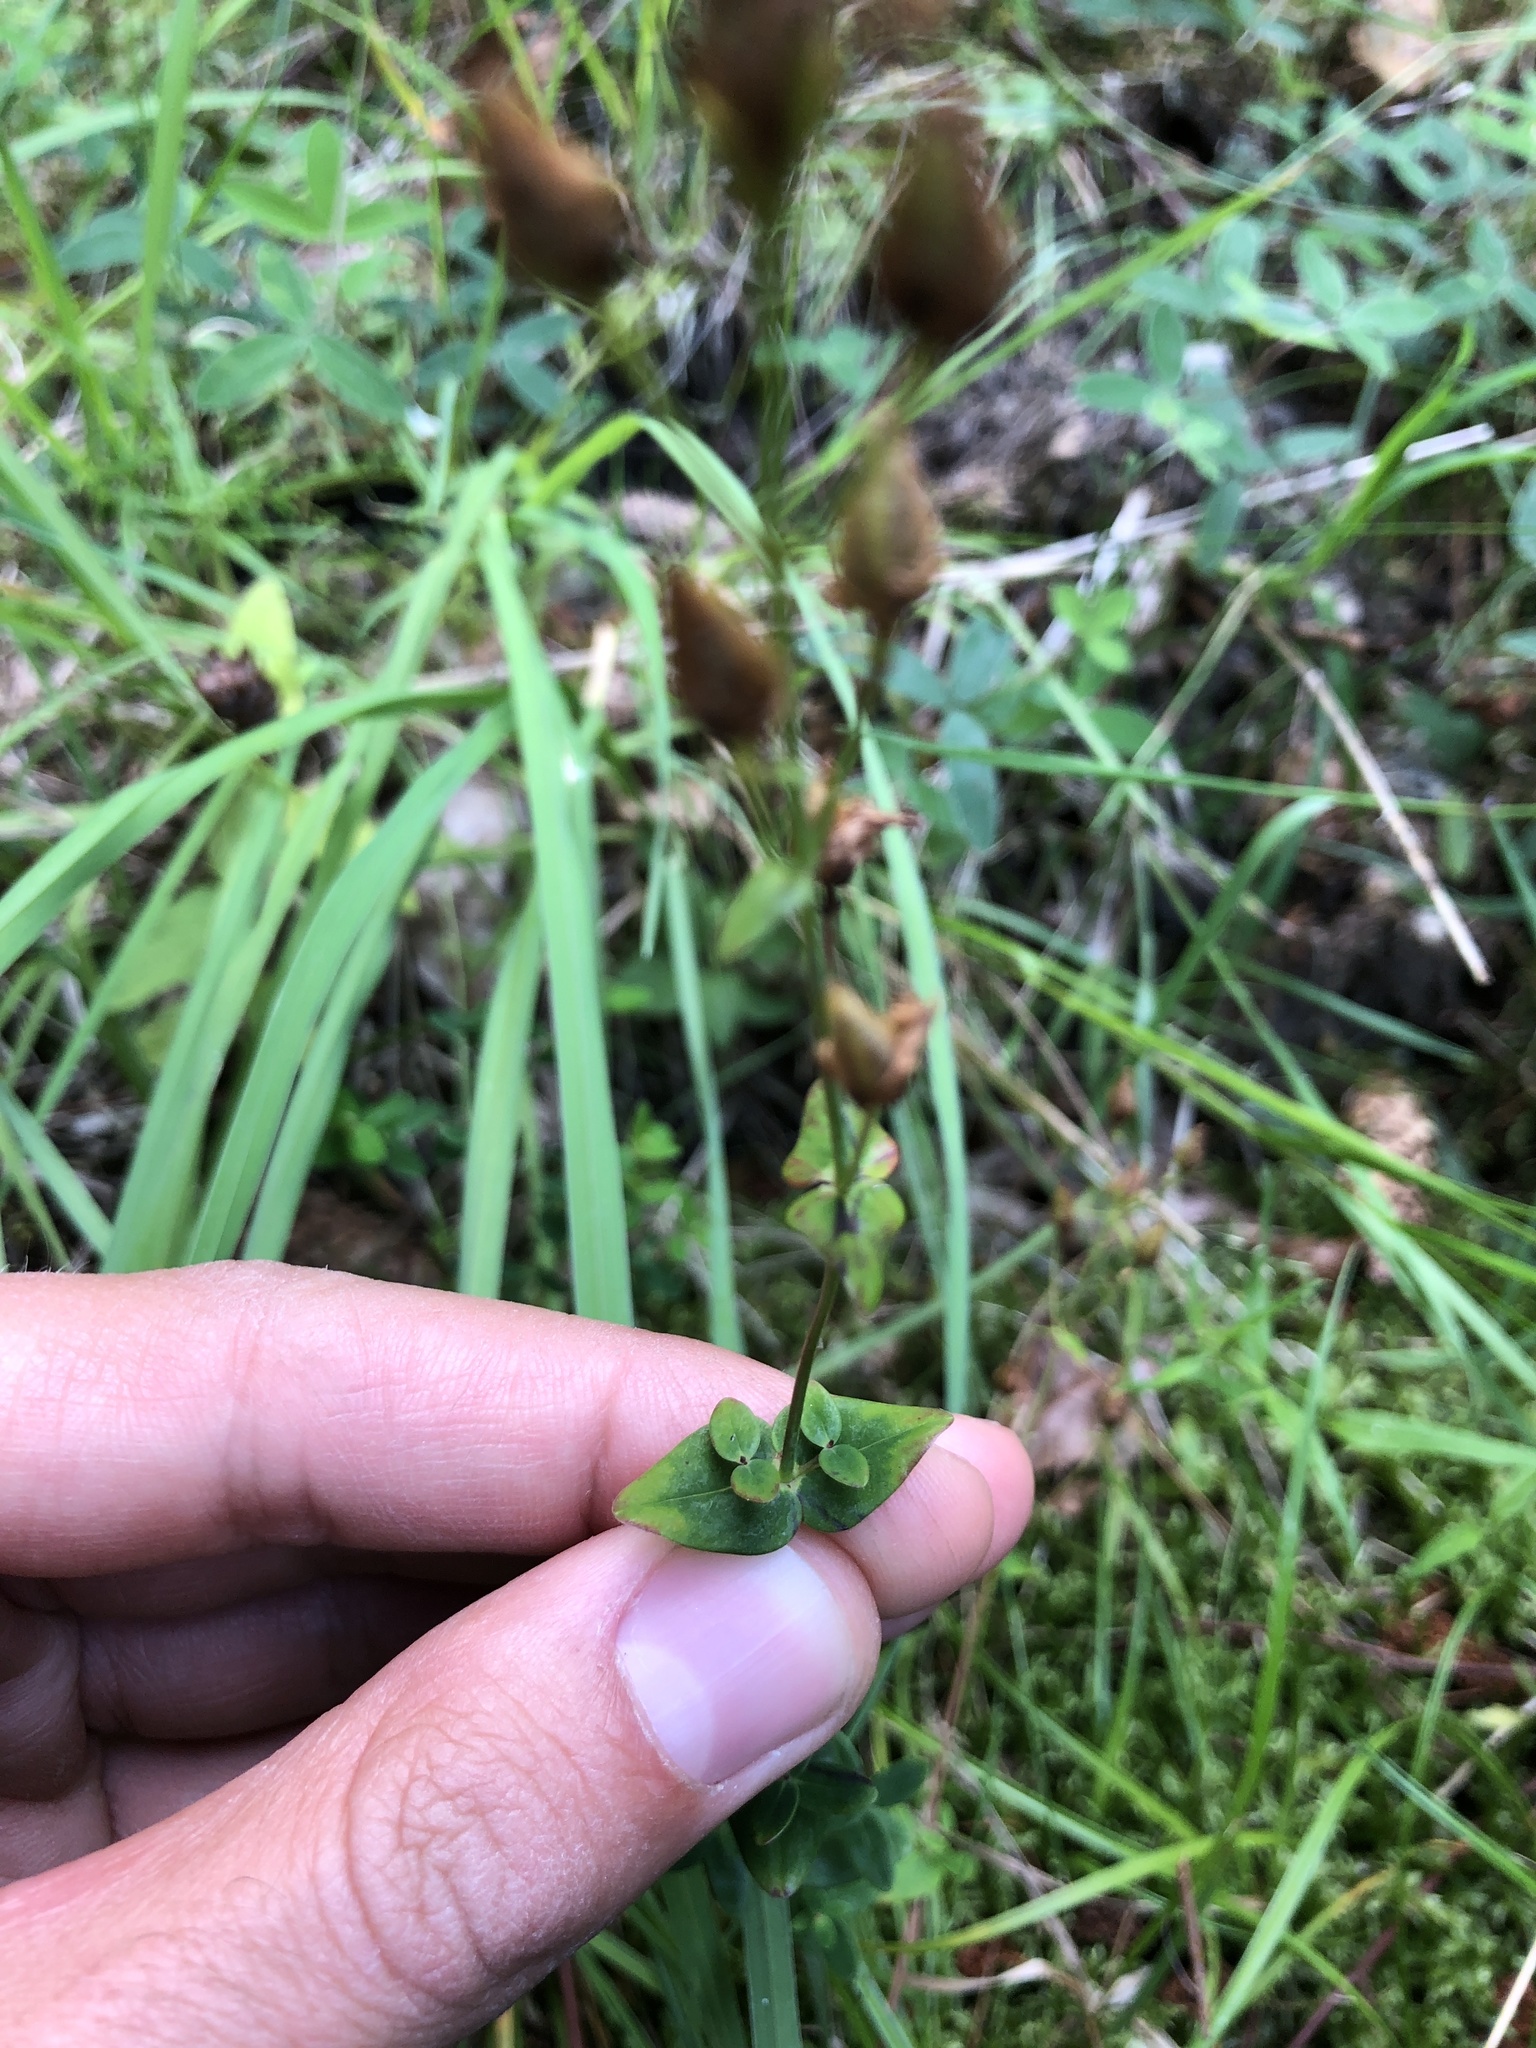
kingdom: Plantae
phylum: Tracheophyta
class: Magnoliopsida
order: Malpighiales
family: Hypericaceae
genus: Hypericum
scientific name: Hypericum pulchrum
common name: Slender st. john's-wort
